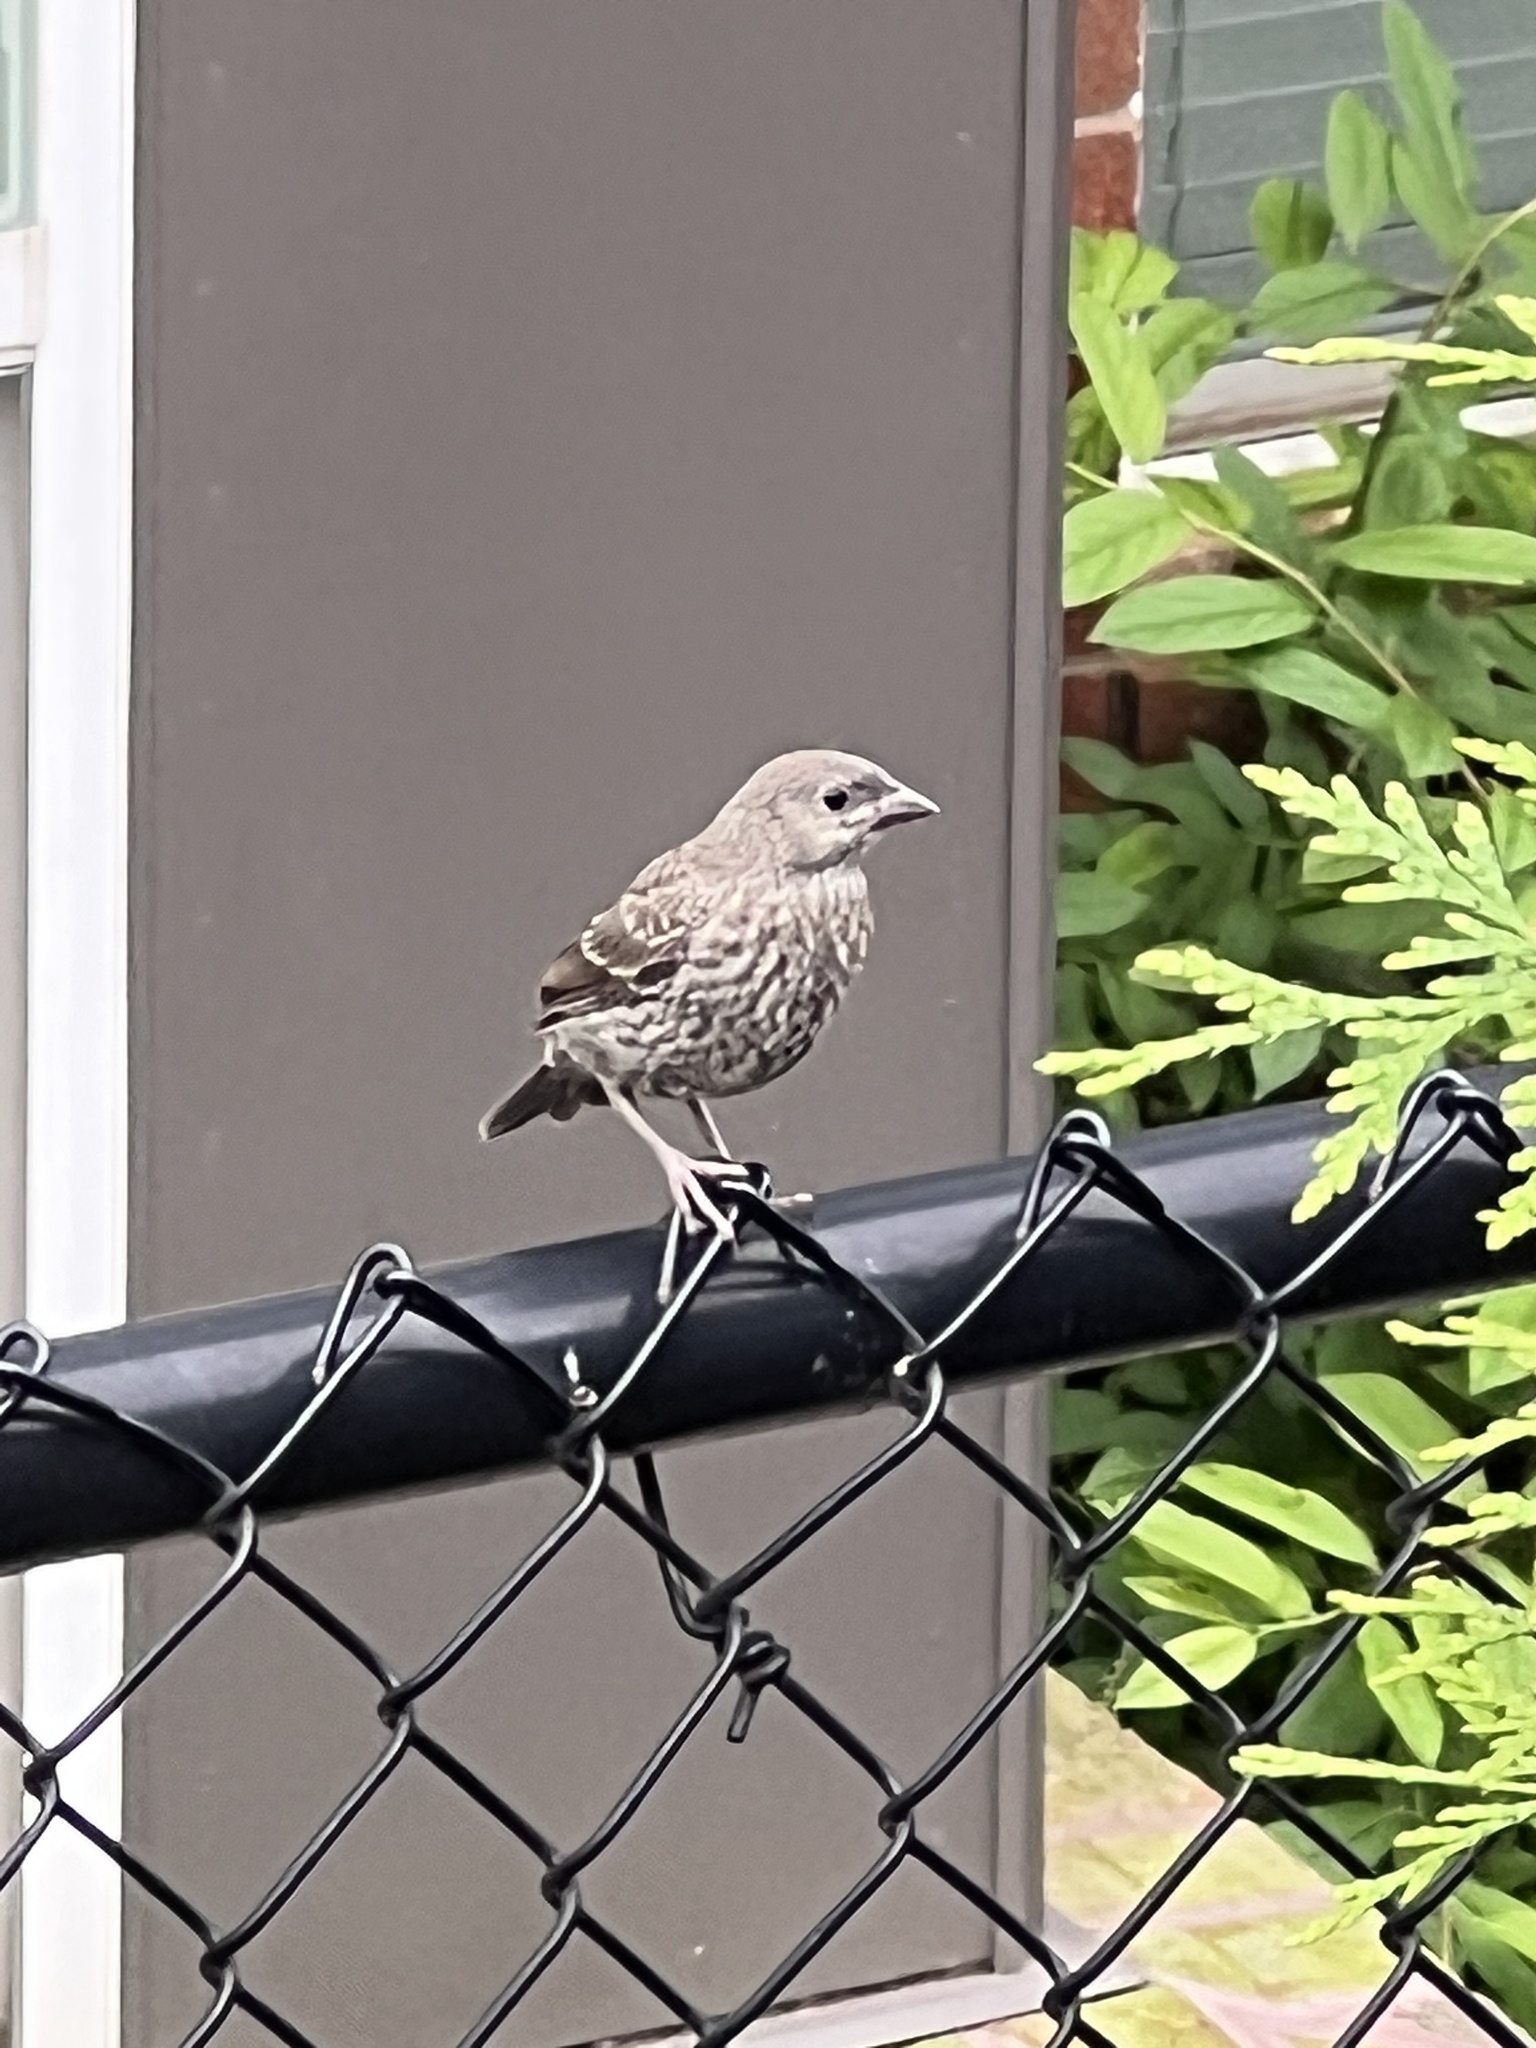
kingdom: Animalia
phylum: Chordata
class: Aves
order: Passeriformes
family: Icteridae
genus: Molothrus
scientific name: Molothrus ater
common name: Brown-headed cowbird
